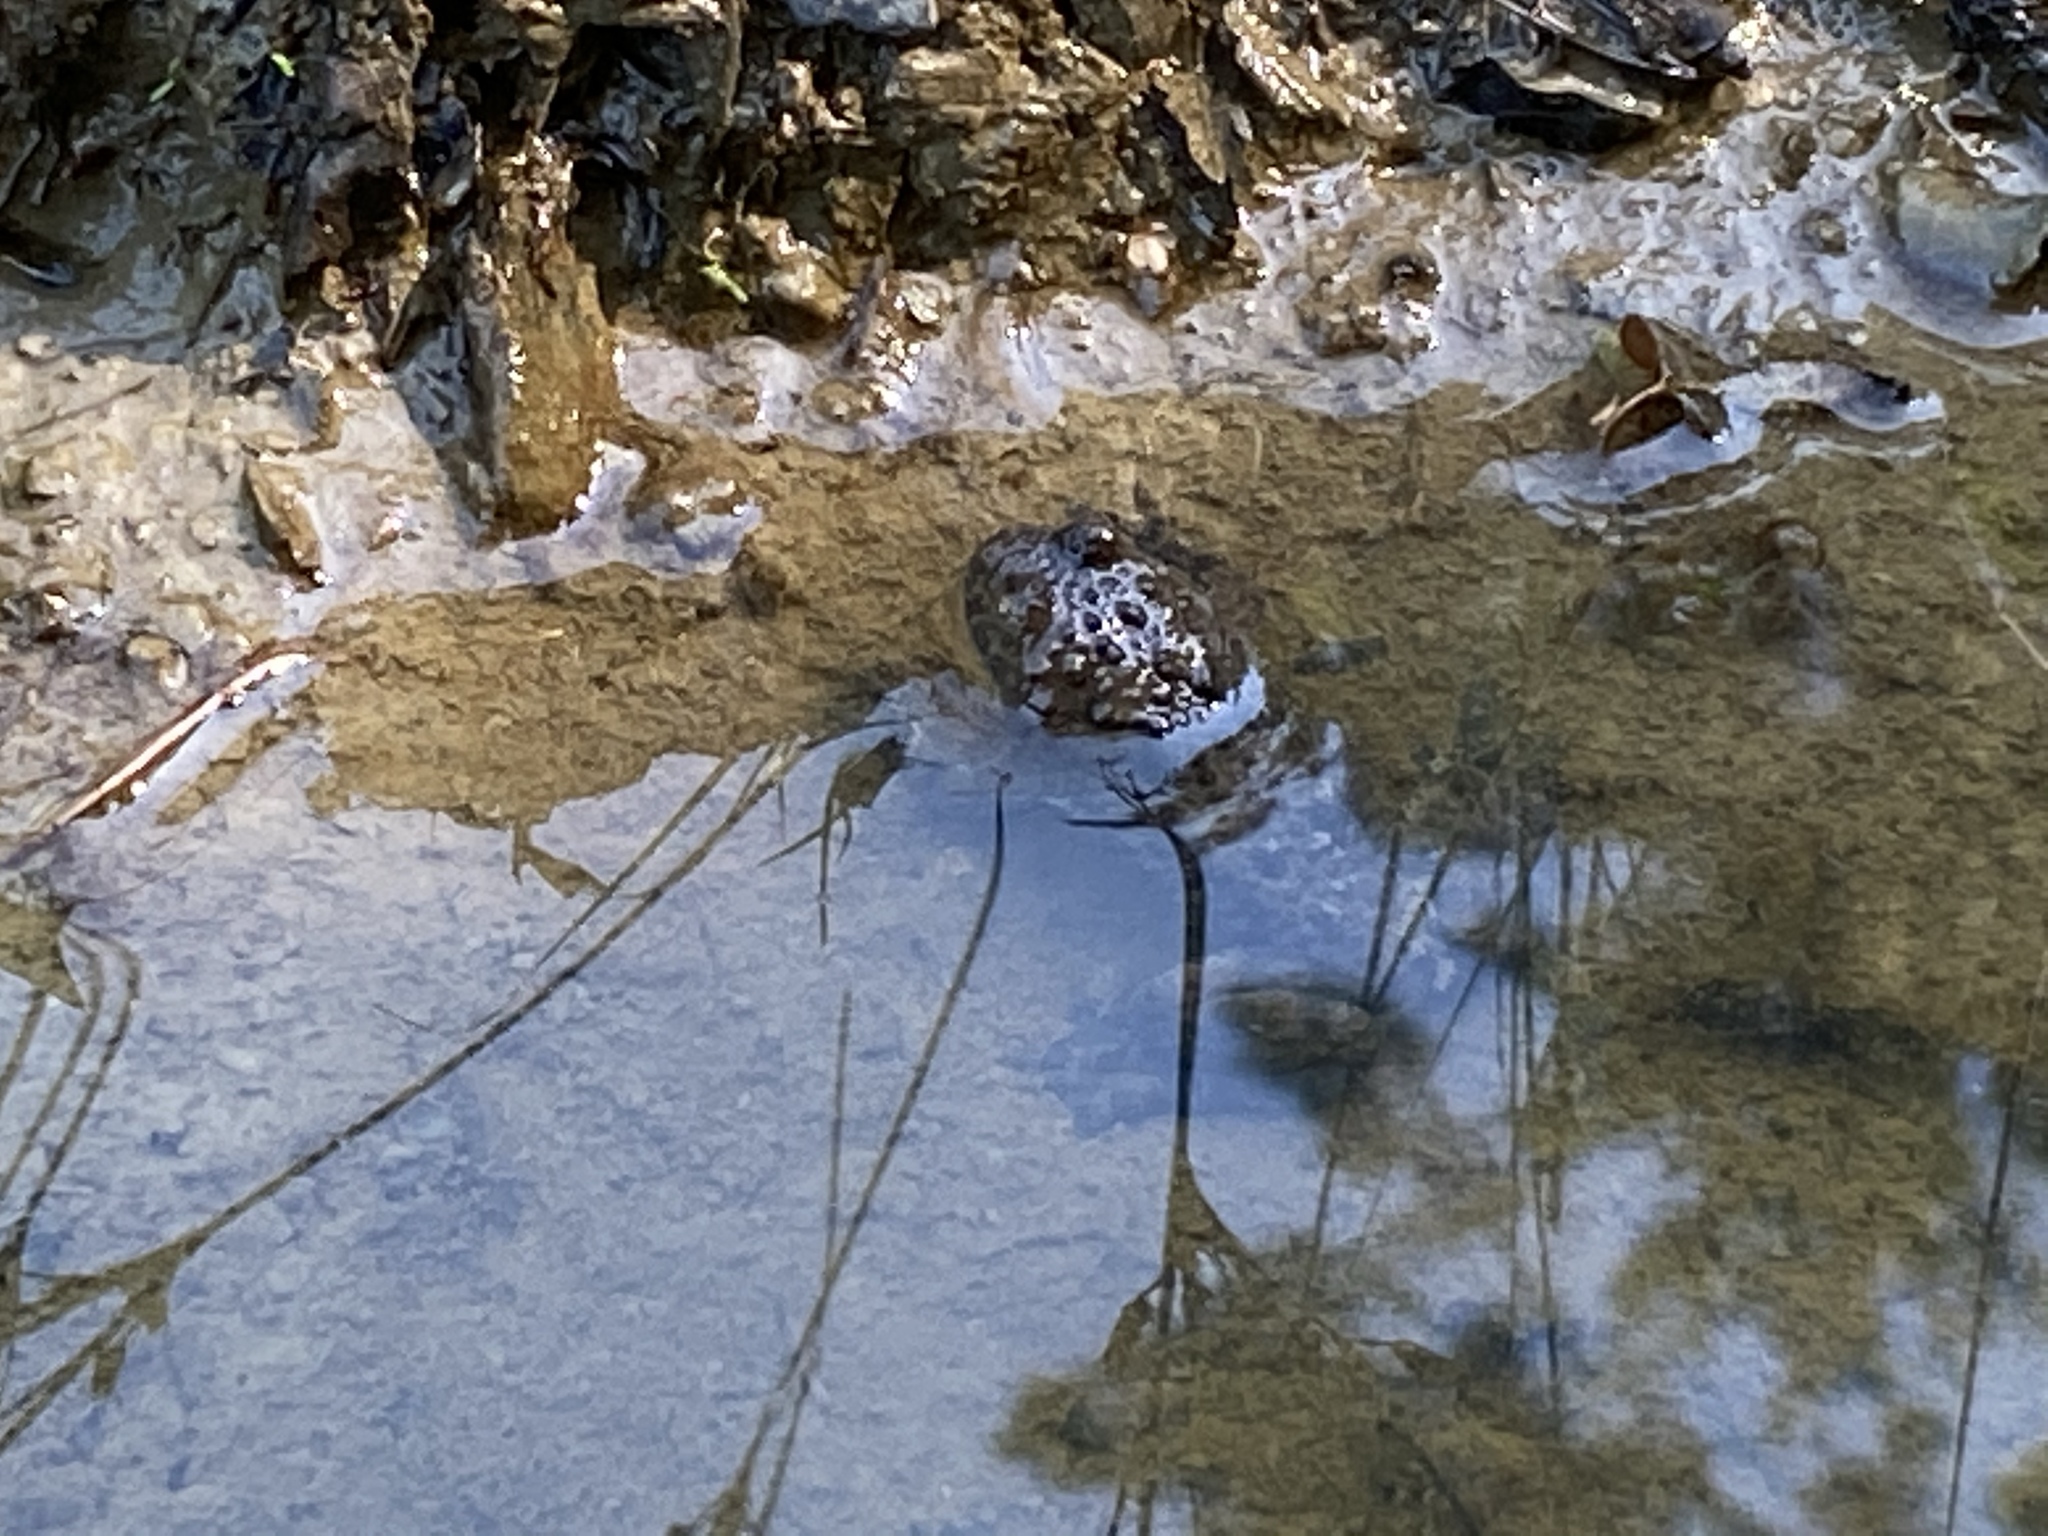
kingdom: Animalia
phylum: Chordata
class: Amphibia
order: Anura
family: Bombinatoridae
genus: Bombina
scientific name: Bombina variegata
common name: Yellow-bellied toad
